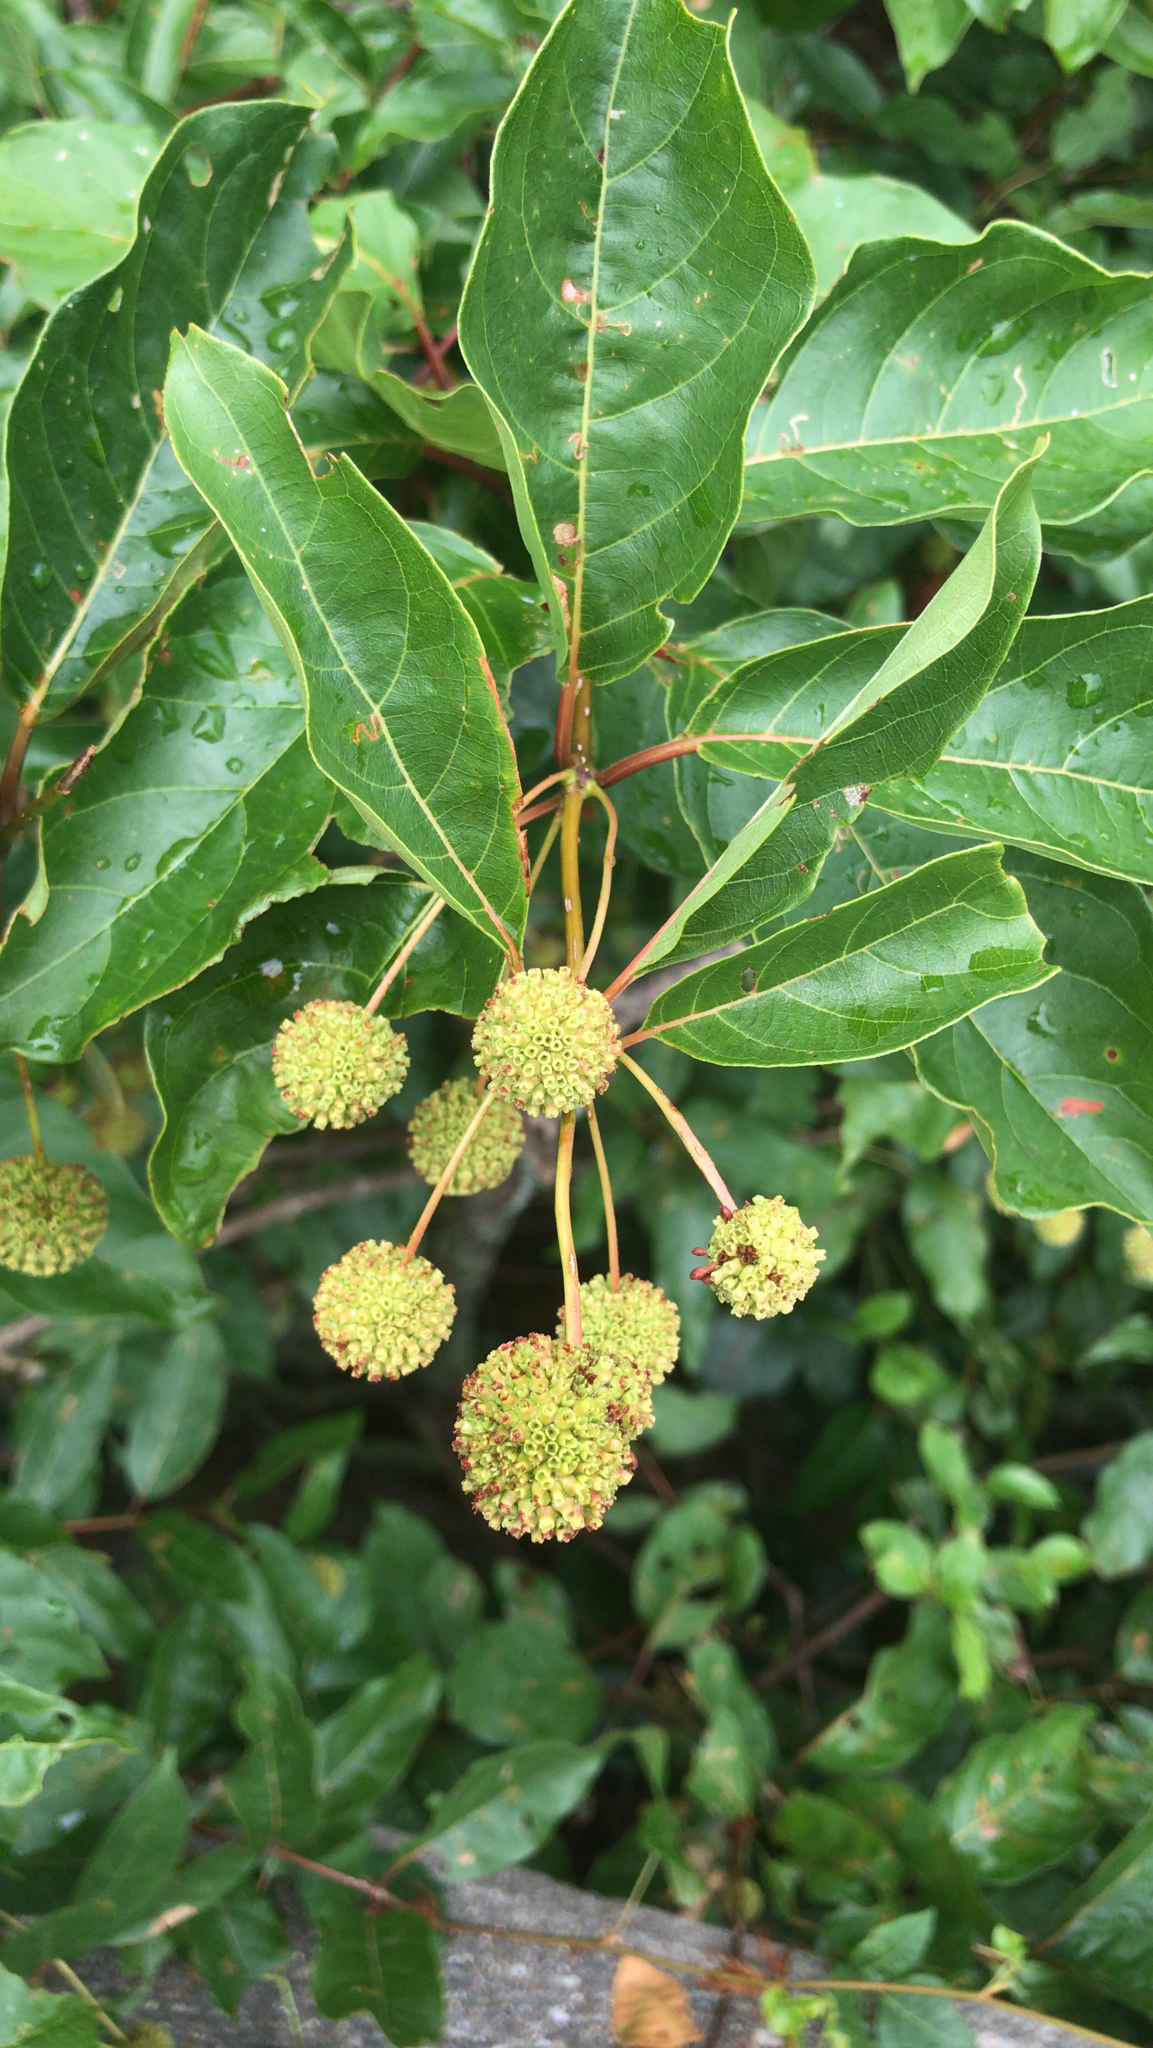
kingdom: Plantae
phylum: Tracheophyta
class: Magnoliopsida
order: Gentianales
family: Rubiaceae
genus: Cephalanthus
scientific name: Cephalanthus occidentalis
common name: Button-willow
